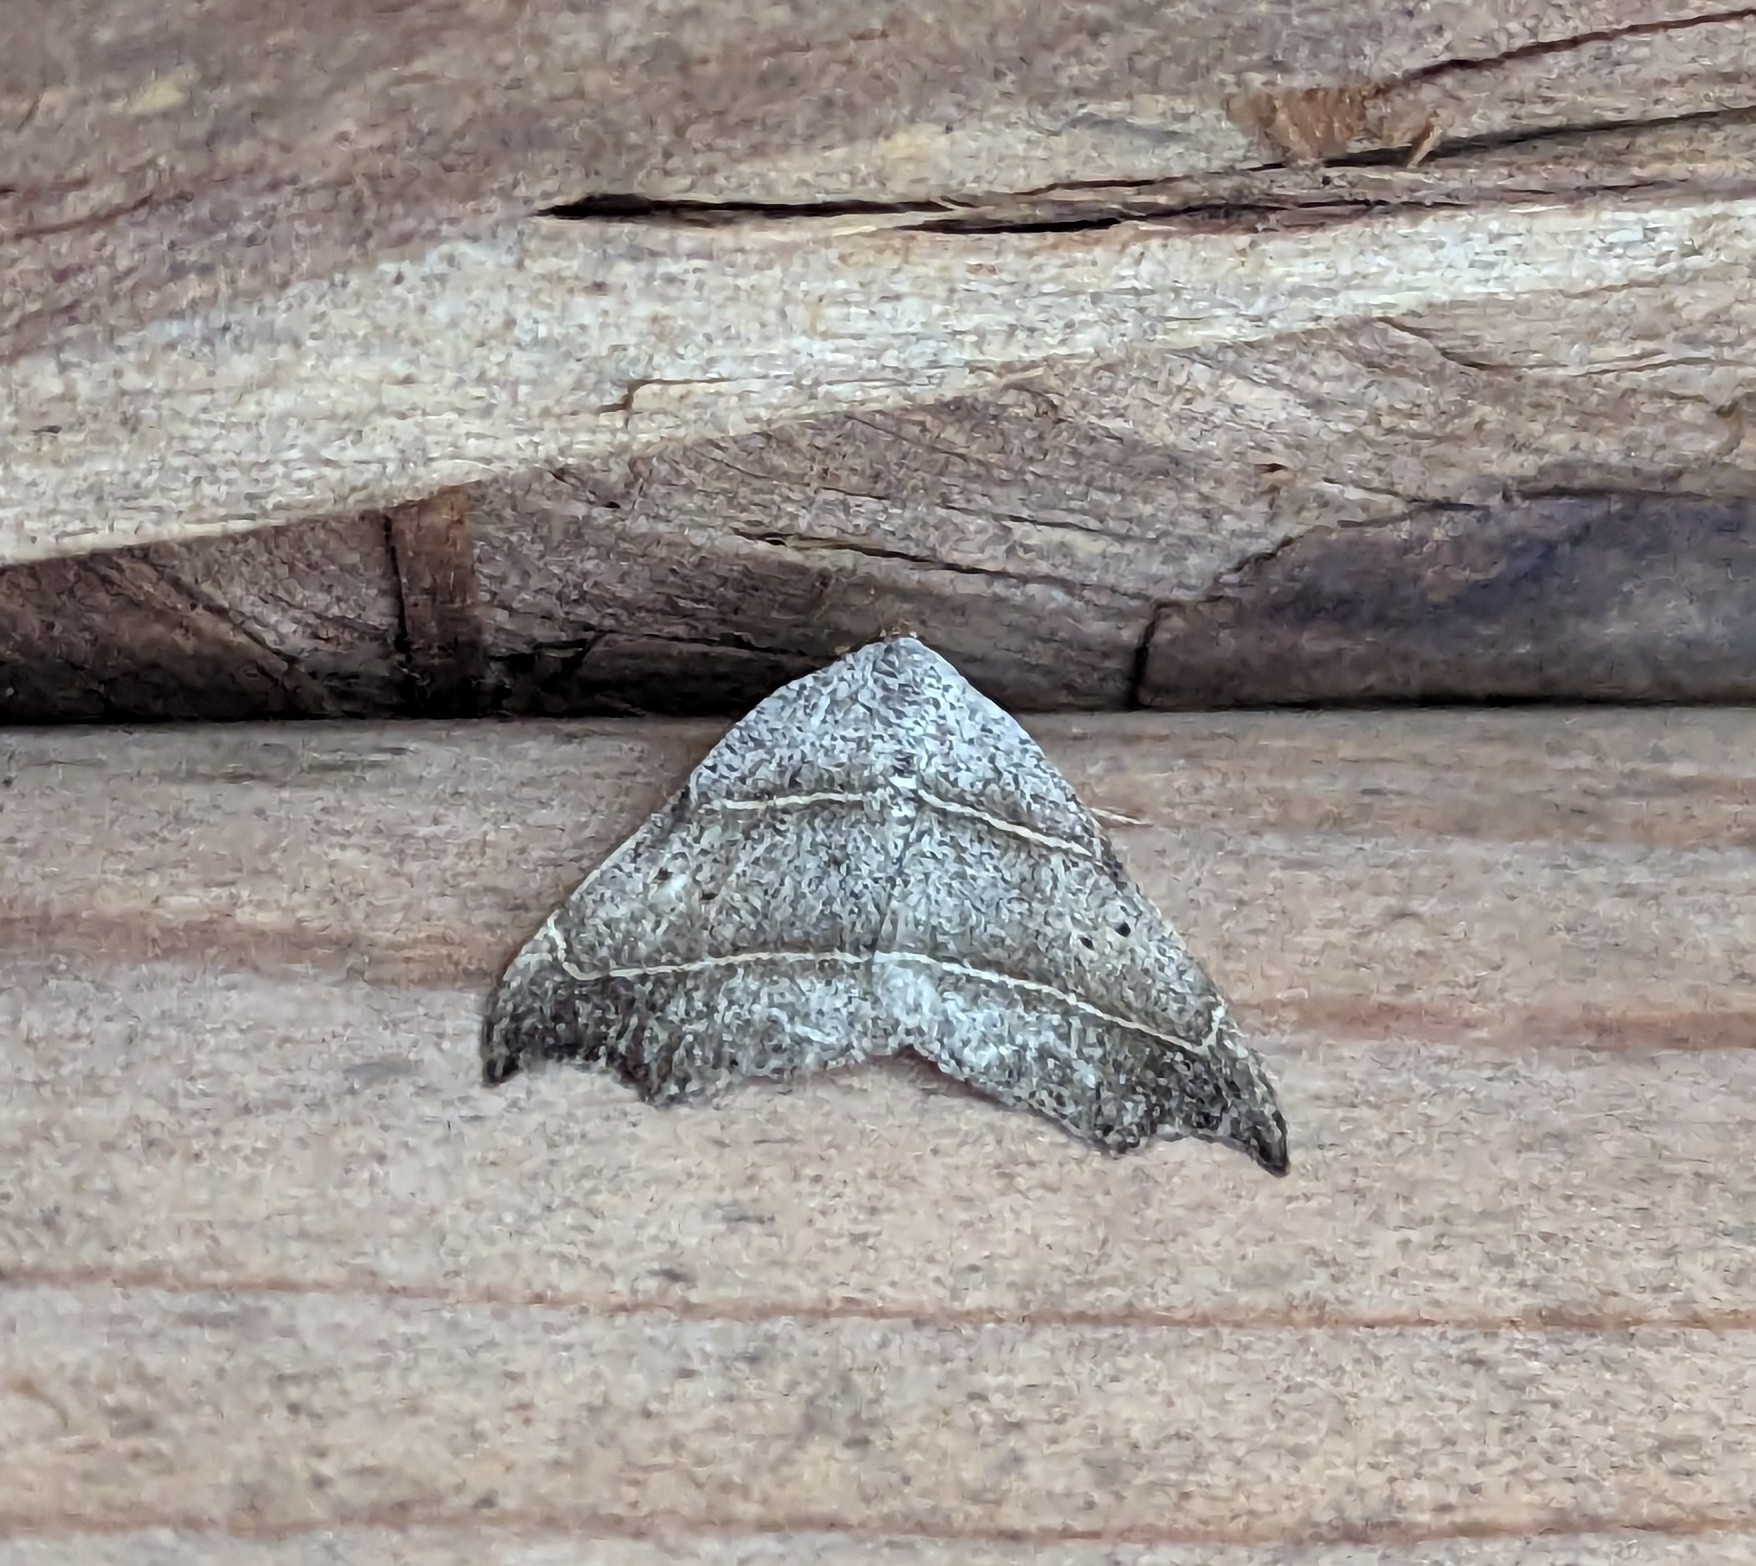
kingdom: Animalia
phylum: Arthropoda
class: Insecta
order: Lepidoptera
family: Erebidae
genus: Laspeyria
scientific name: Laspeyria flexula
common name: Beautiful hook-tip
